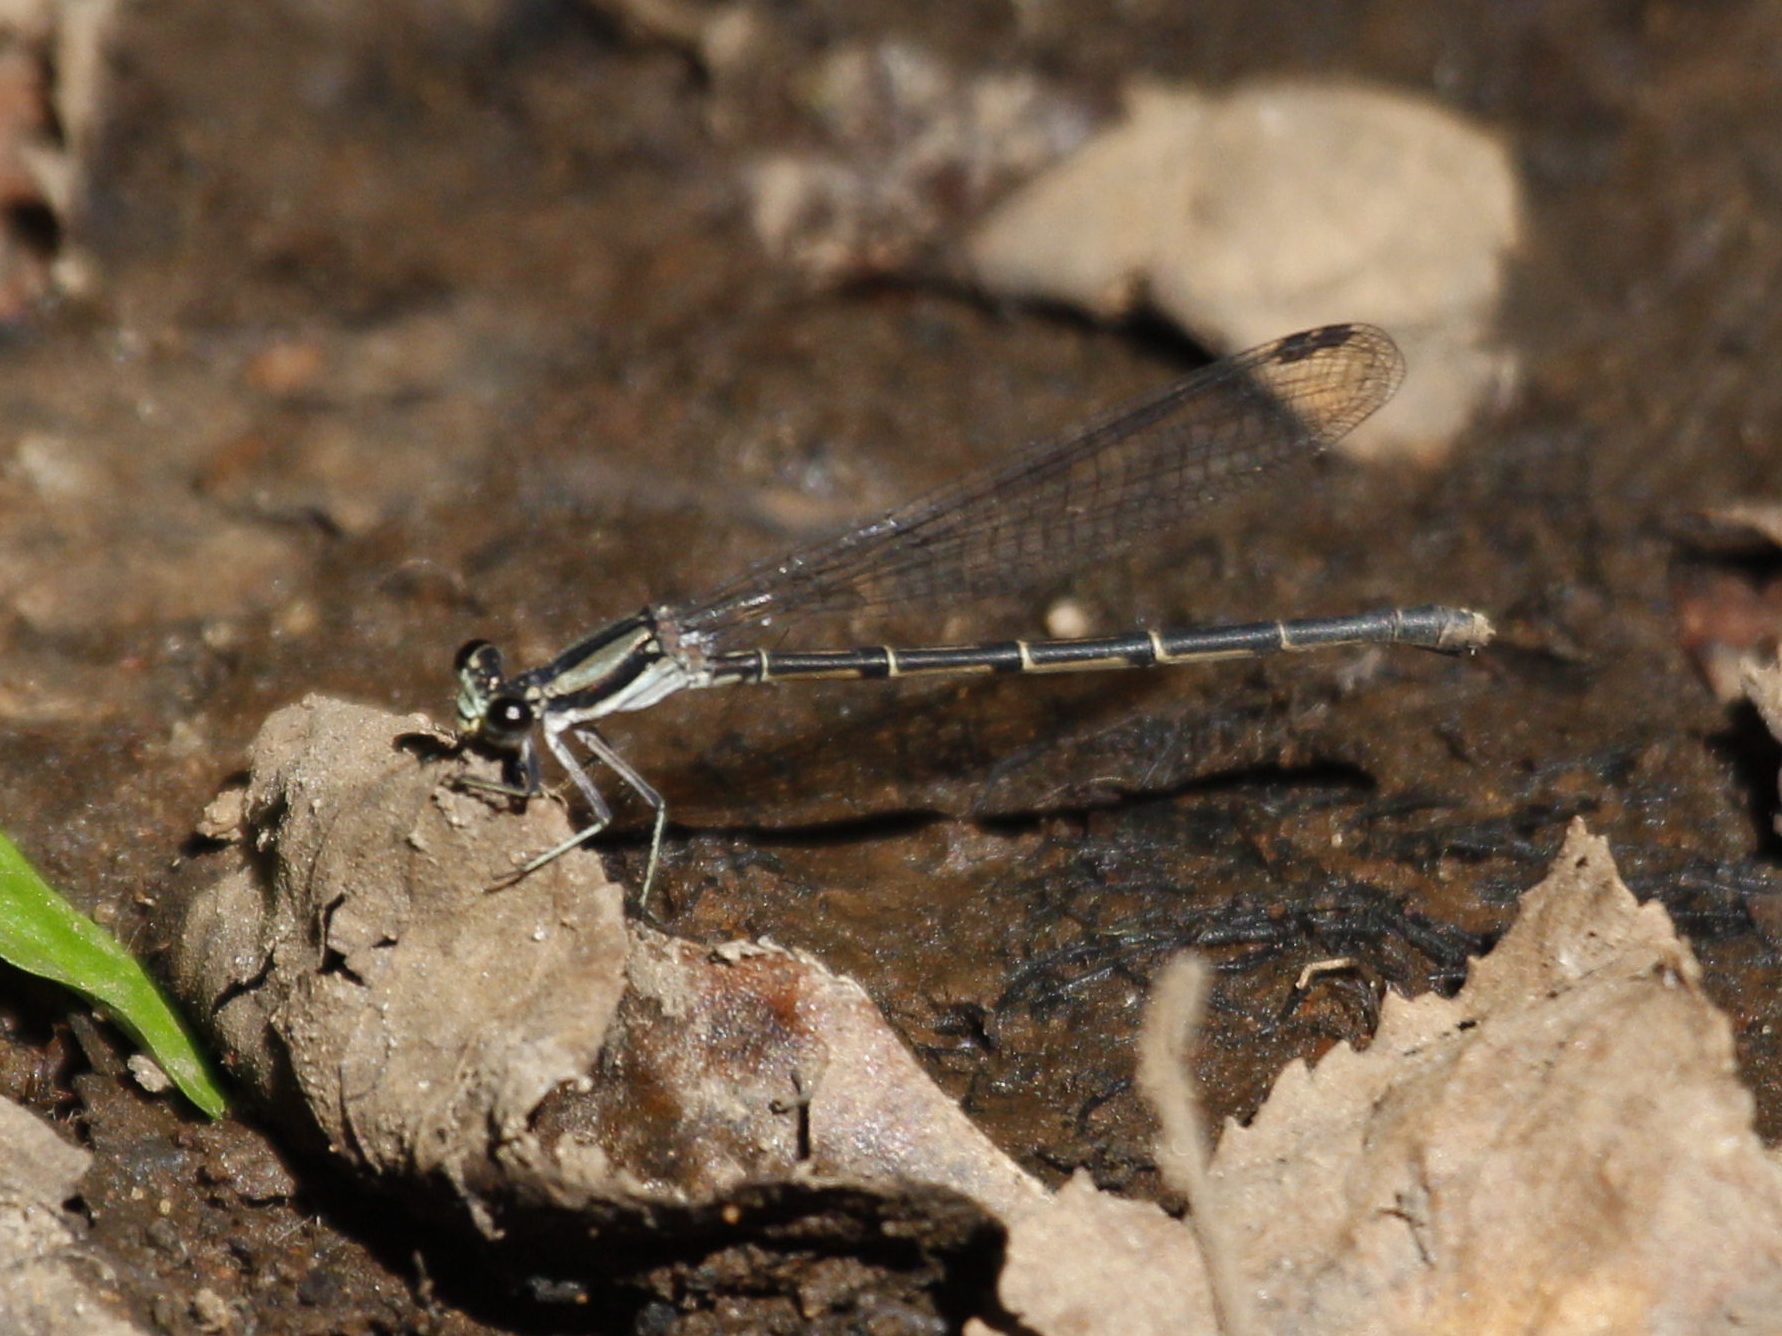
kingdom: Animalia
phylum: Arthropoda
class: Insecta
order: Odonata
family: Coenagrionidae
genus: Argia
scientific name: Argia tibialis
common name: Blue-tipped dancer
